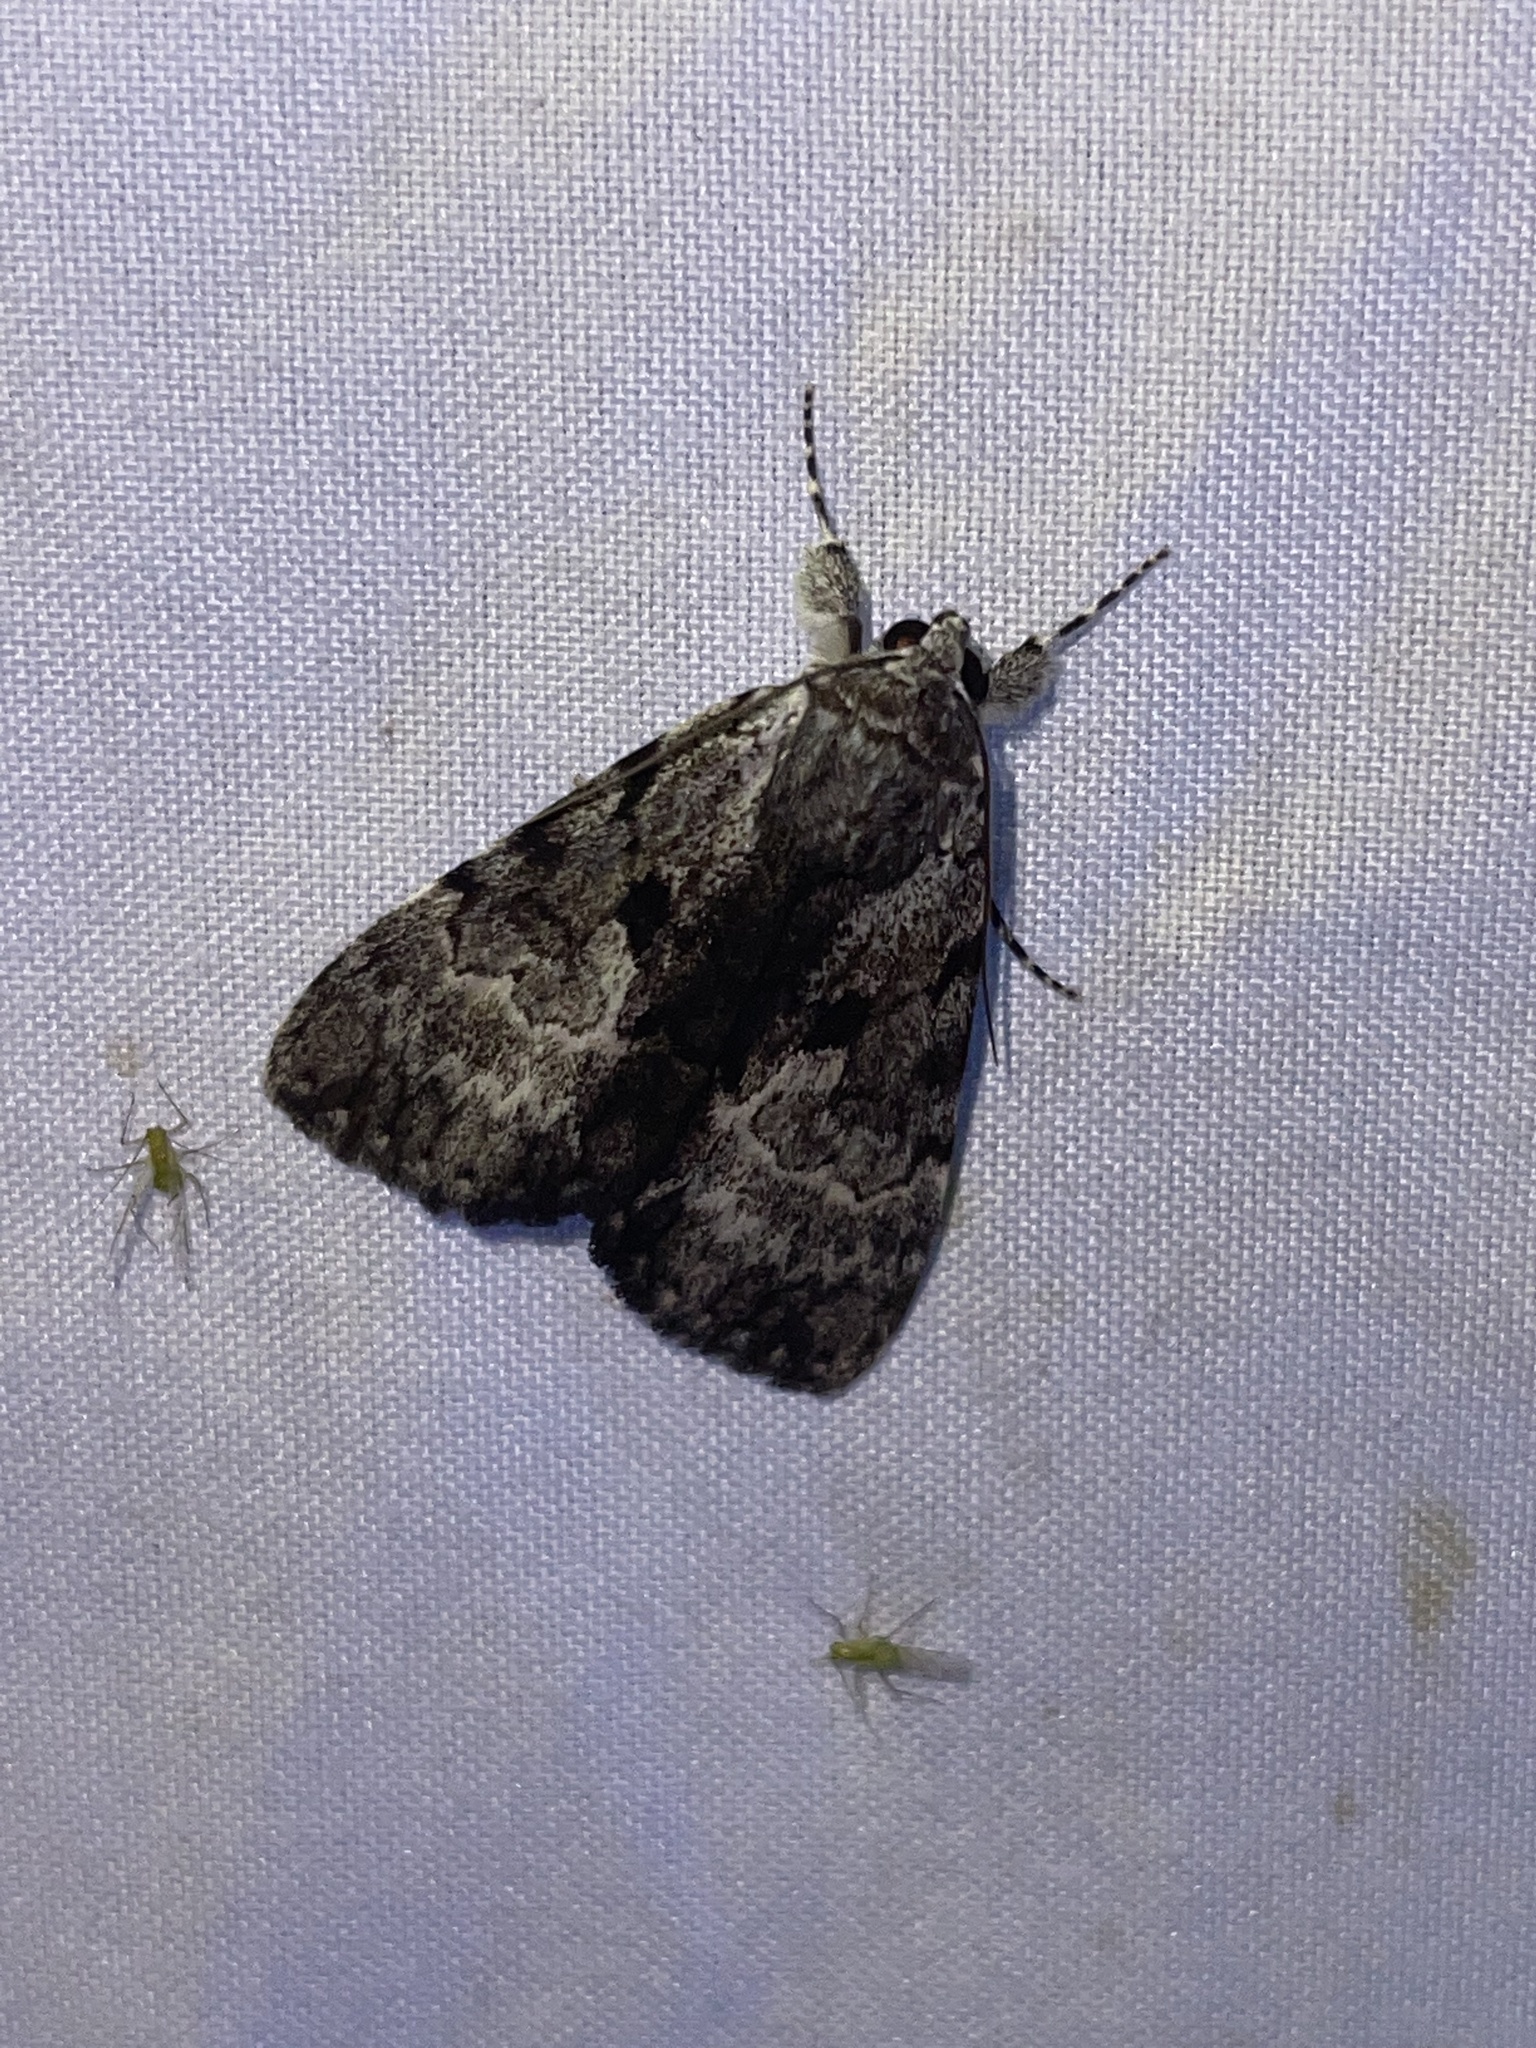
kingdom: Animalia
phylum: Arthropoda
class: Insecta
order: Lepidoptera
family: Erebidae
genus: Catocala
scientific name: Catocala andromedae
